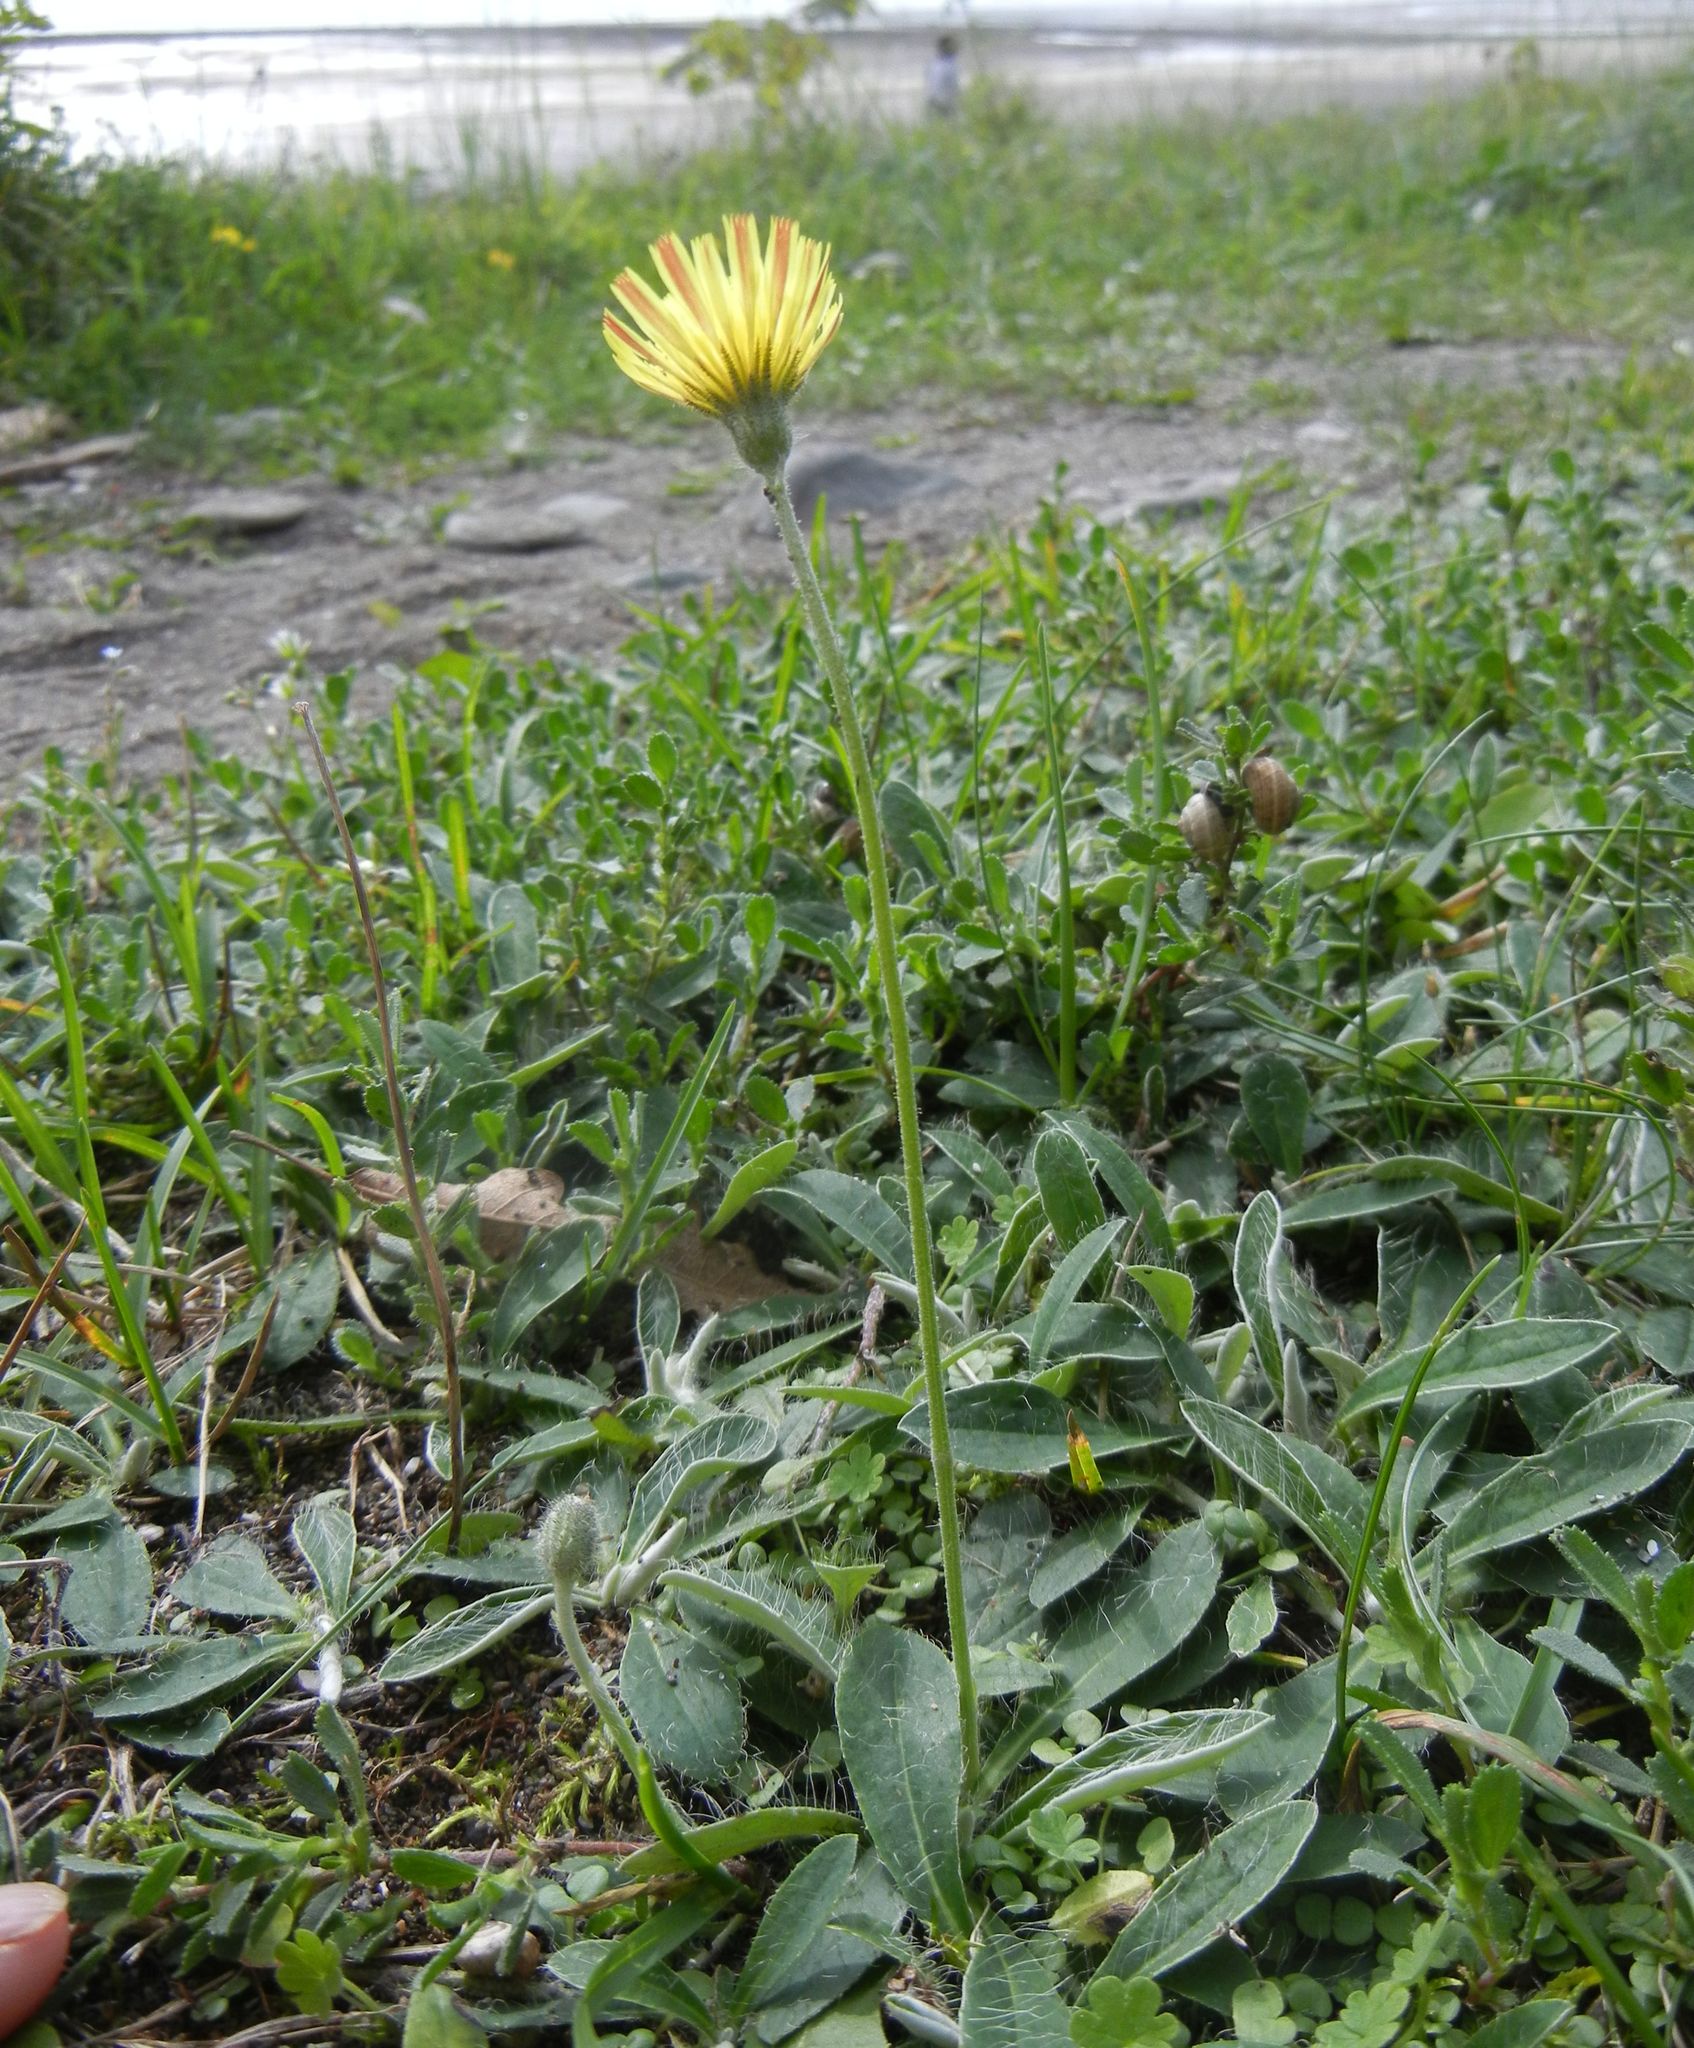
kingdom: Plantae
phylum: Tracheophyta
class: Magnoliopsida
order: Asterales
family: Asteraceae
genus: Pilosella
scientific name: Pilosella officinarum
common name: Mouse-ear hawkweed
